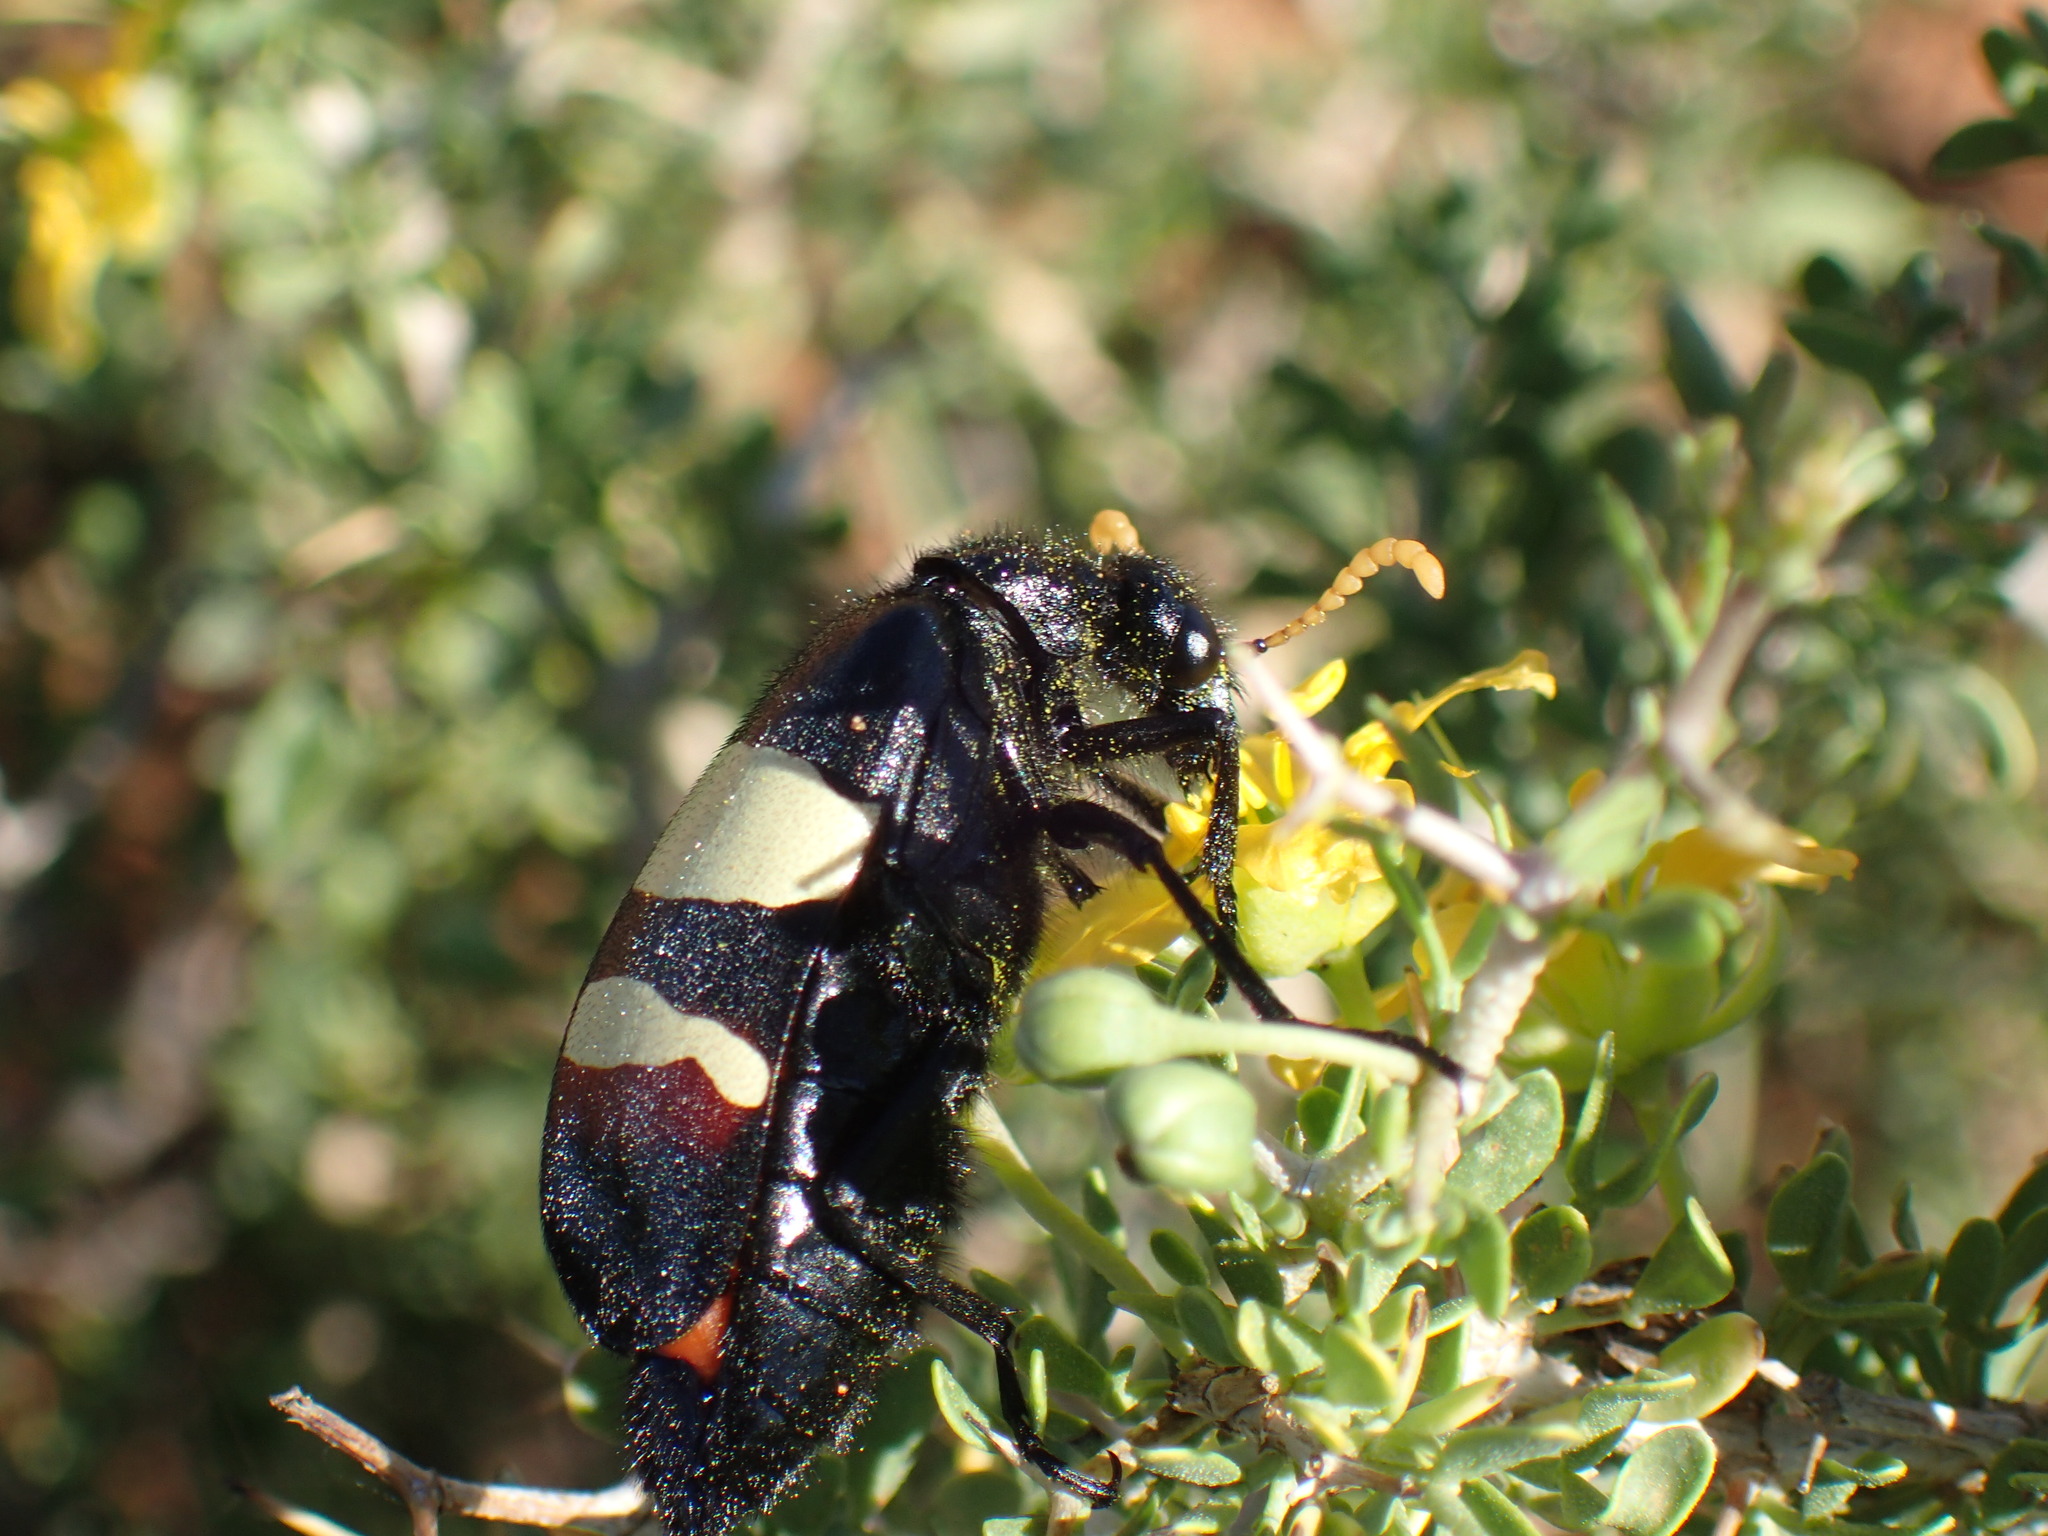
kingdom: Animalia
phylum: Arthropoda
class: Insecta
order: Coleoptera
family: Meloidae
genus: Hycleus
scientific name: Hycleus
